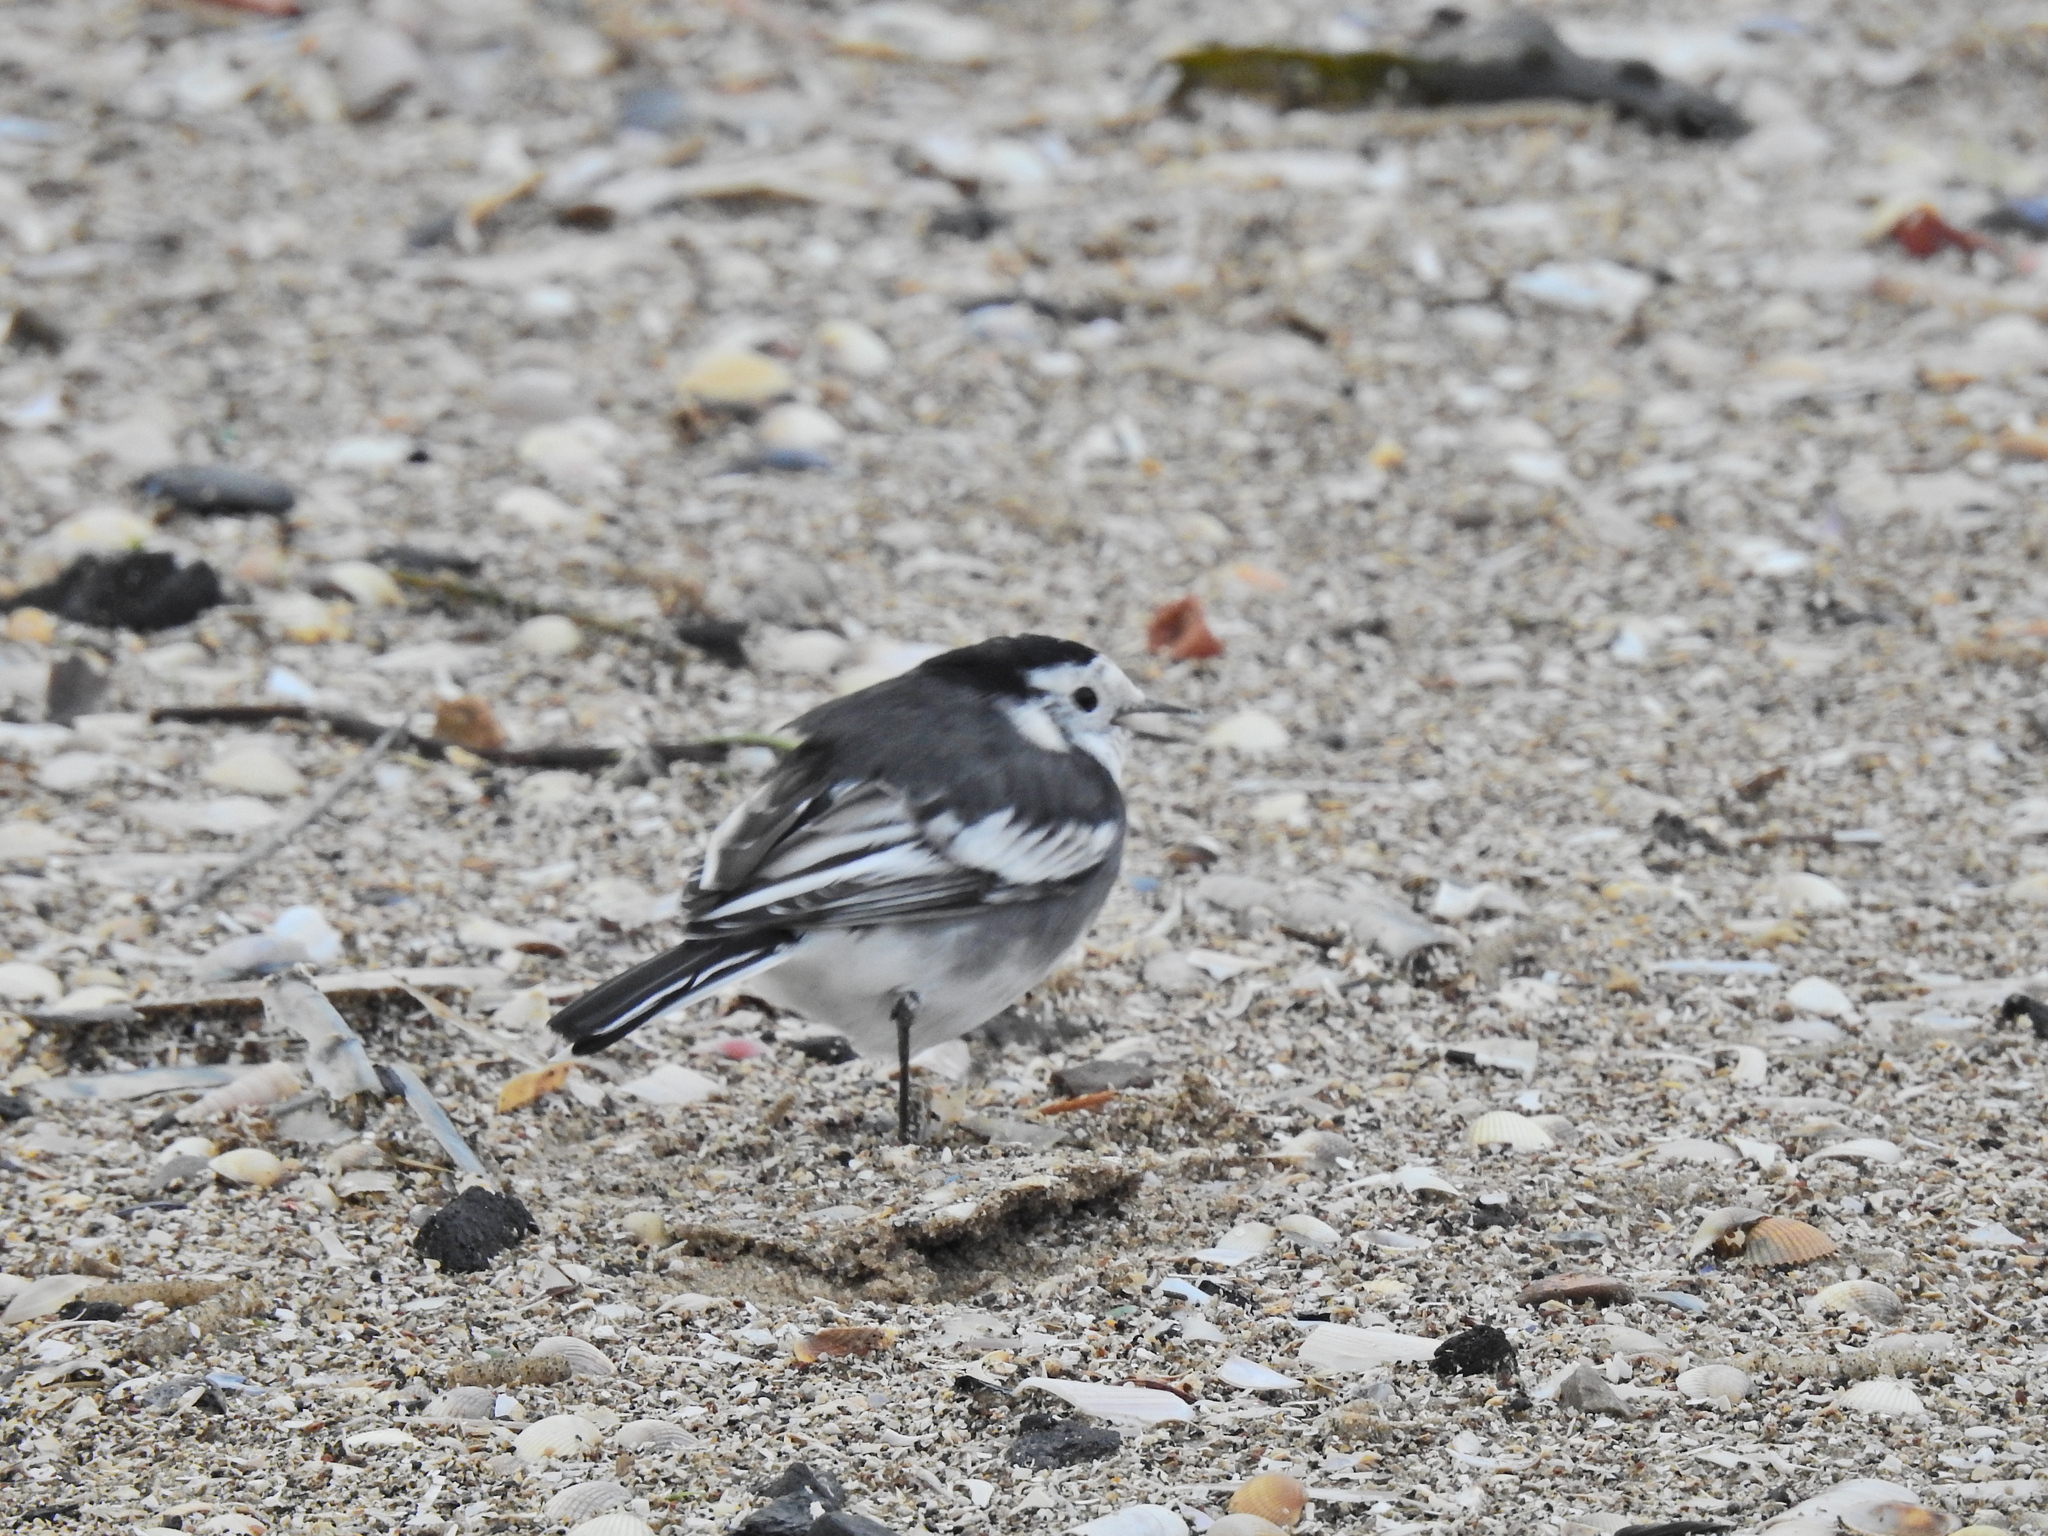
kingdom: Animalia
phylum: Chordata
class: Aves
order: Passeriformes
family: Motacillidae
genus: Motacilla
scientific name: Motacilla alba
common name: White wagtail
